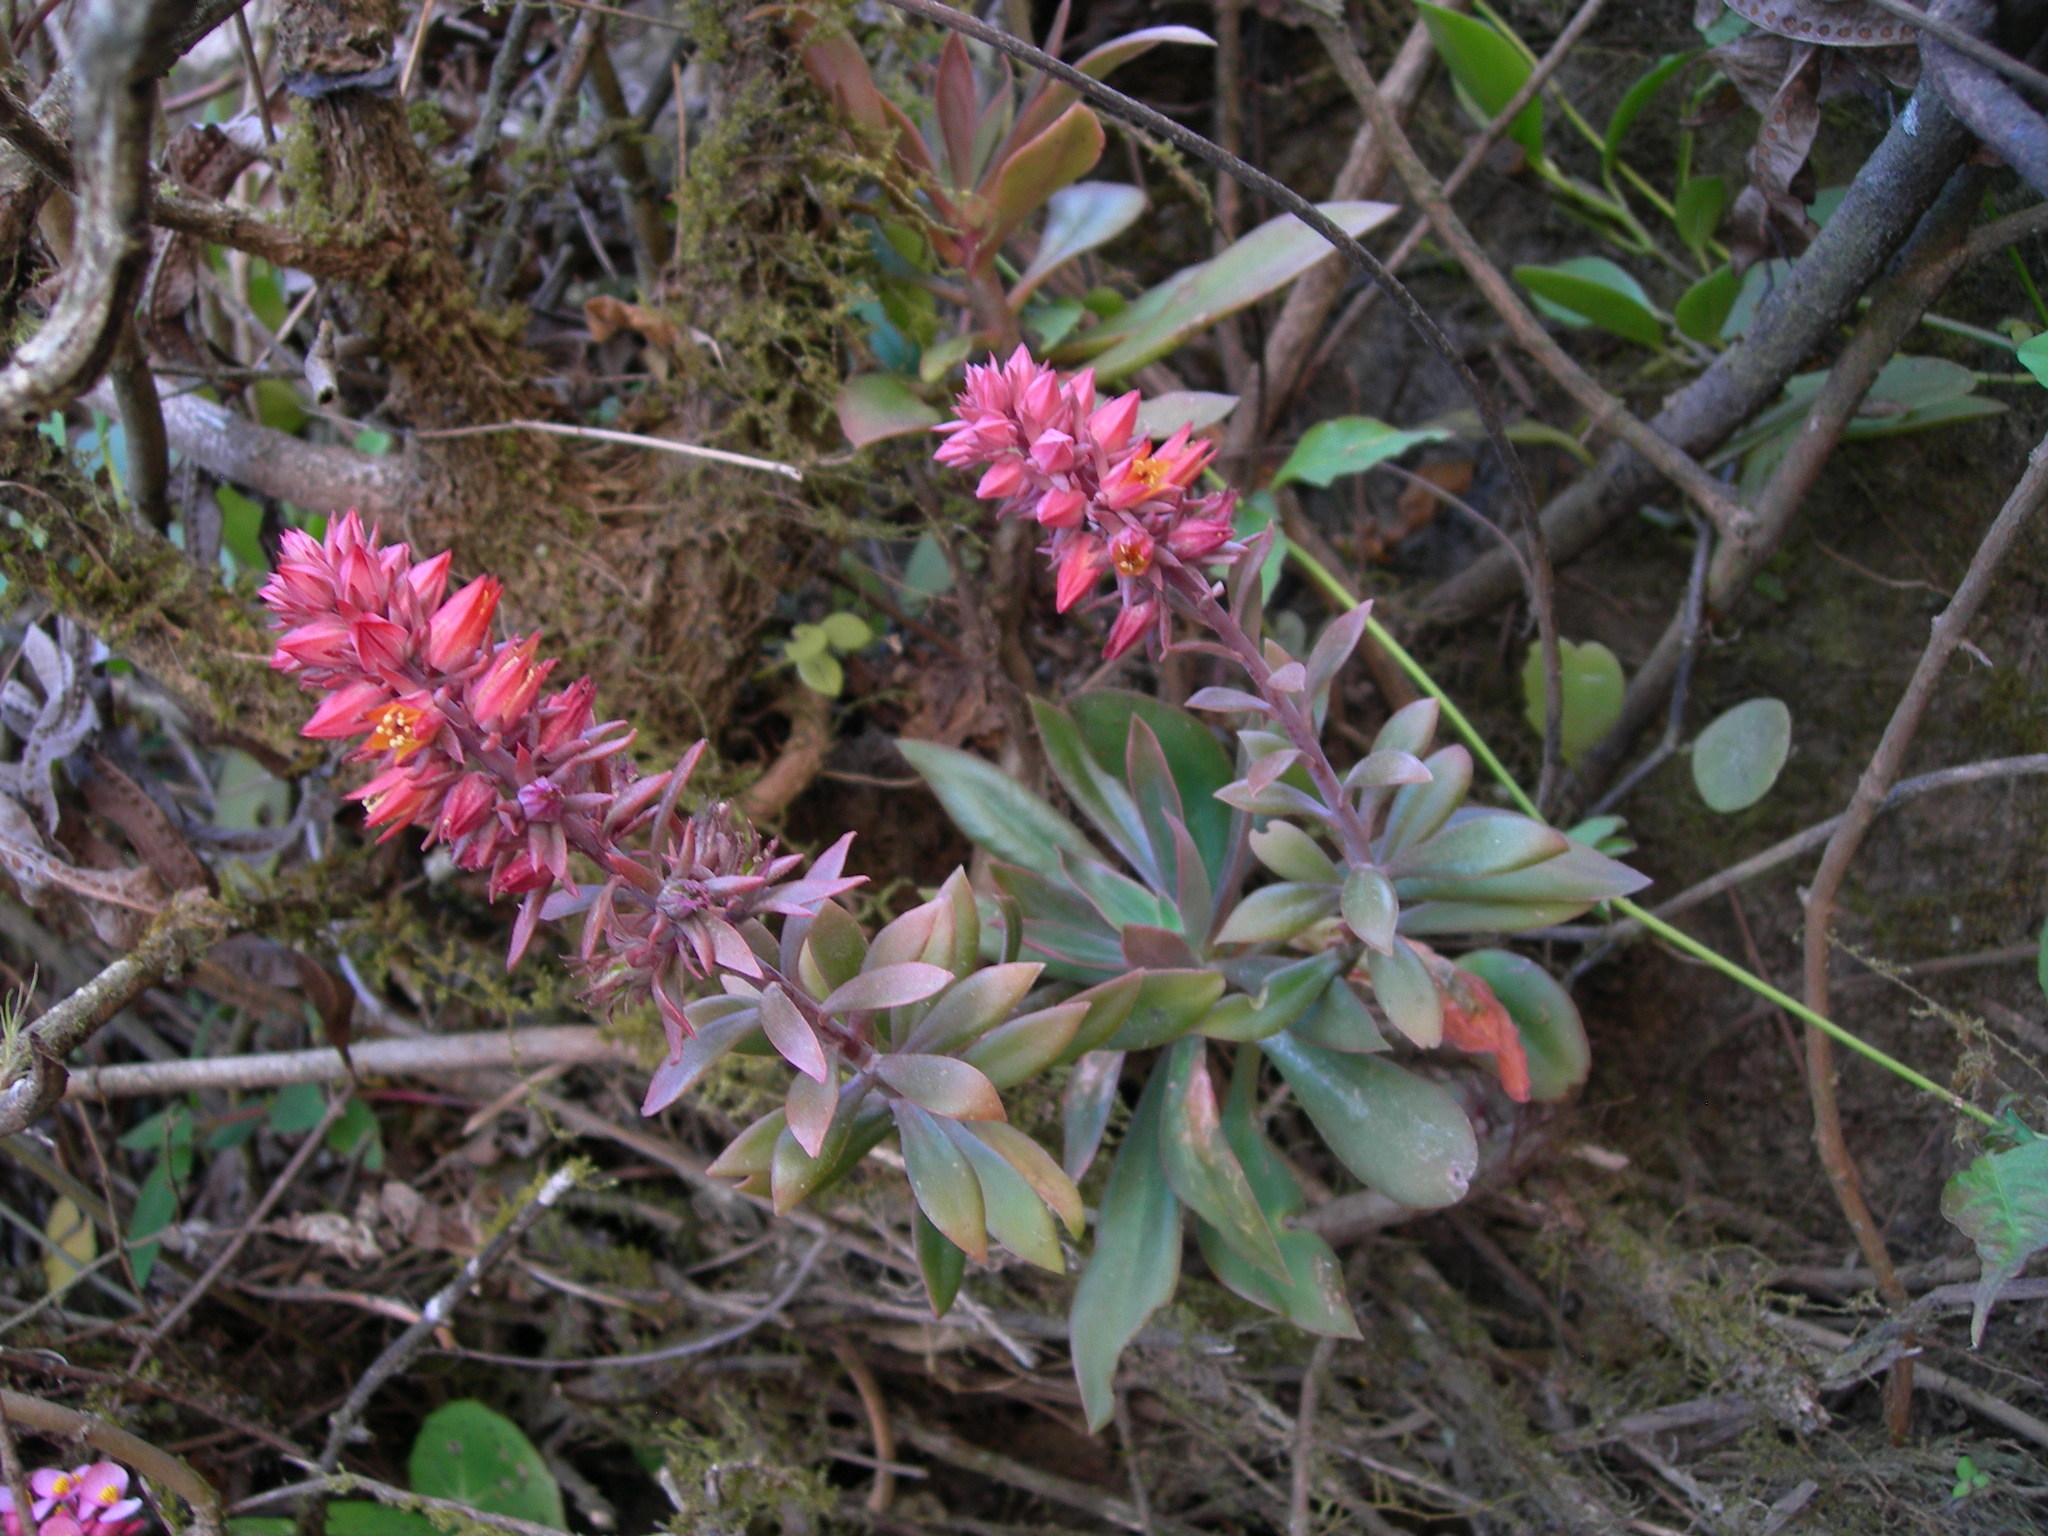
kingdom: Plantae
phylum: Tracheophyta
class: Magnoliopsida
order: Saxifragales
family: Crassulaceae
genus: Echeveria
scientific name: Echeveria rosea
